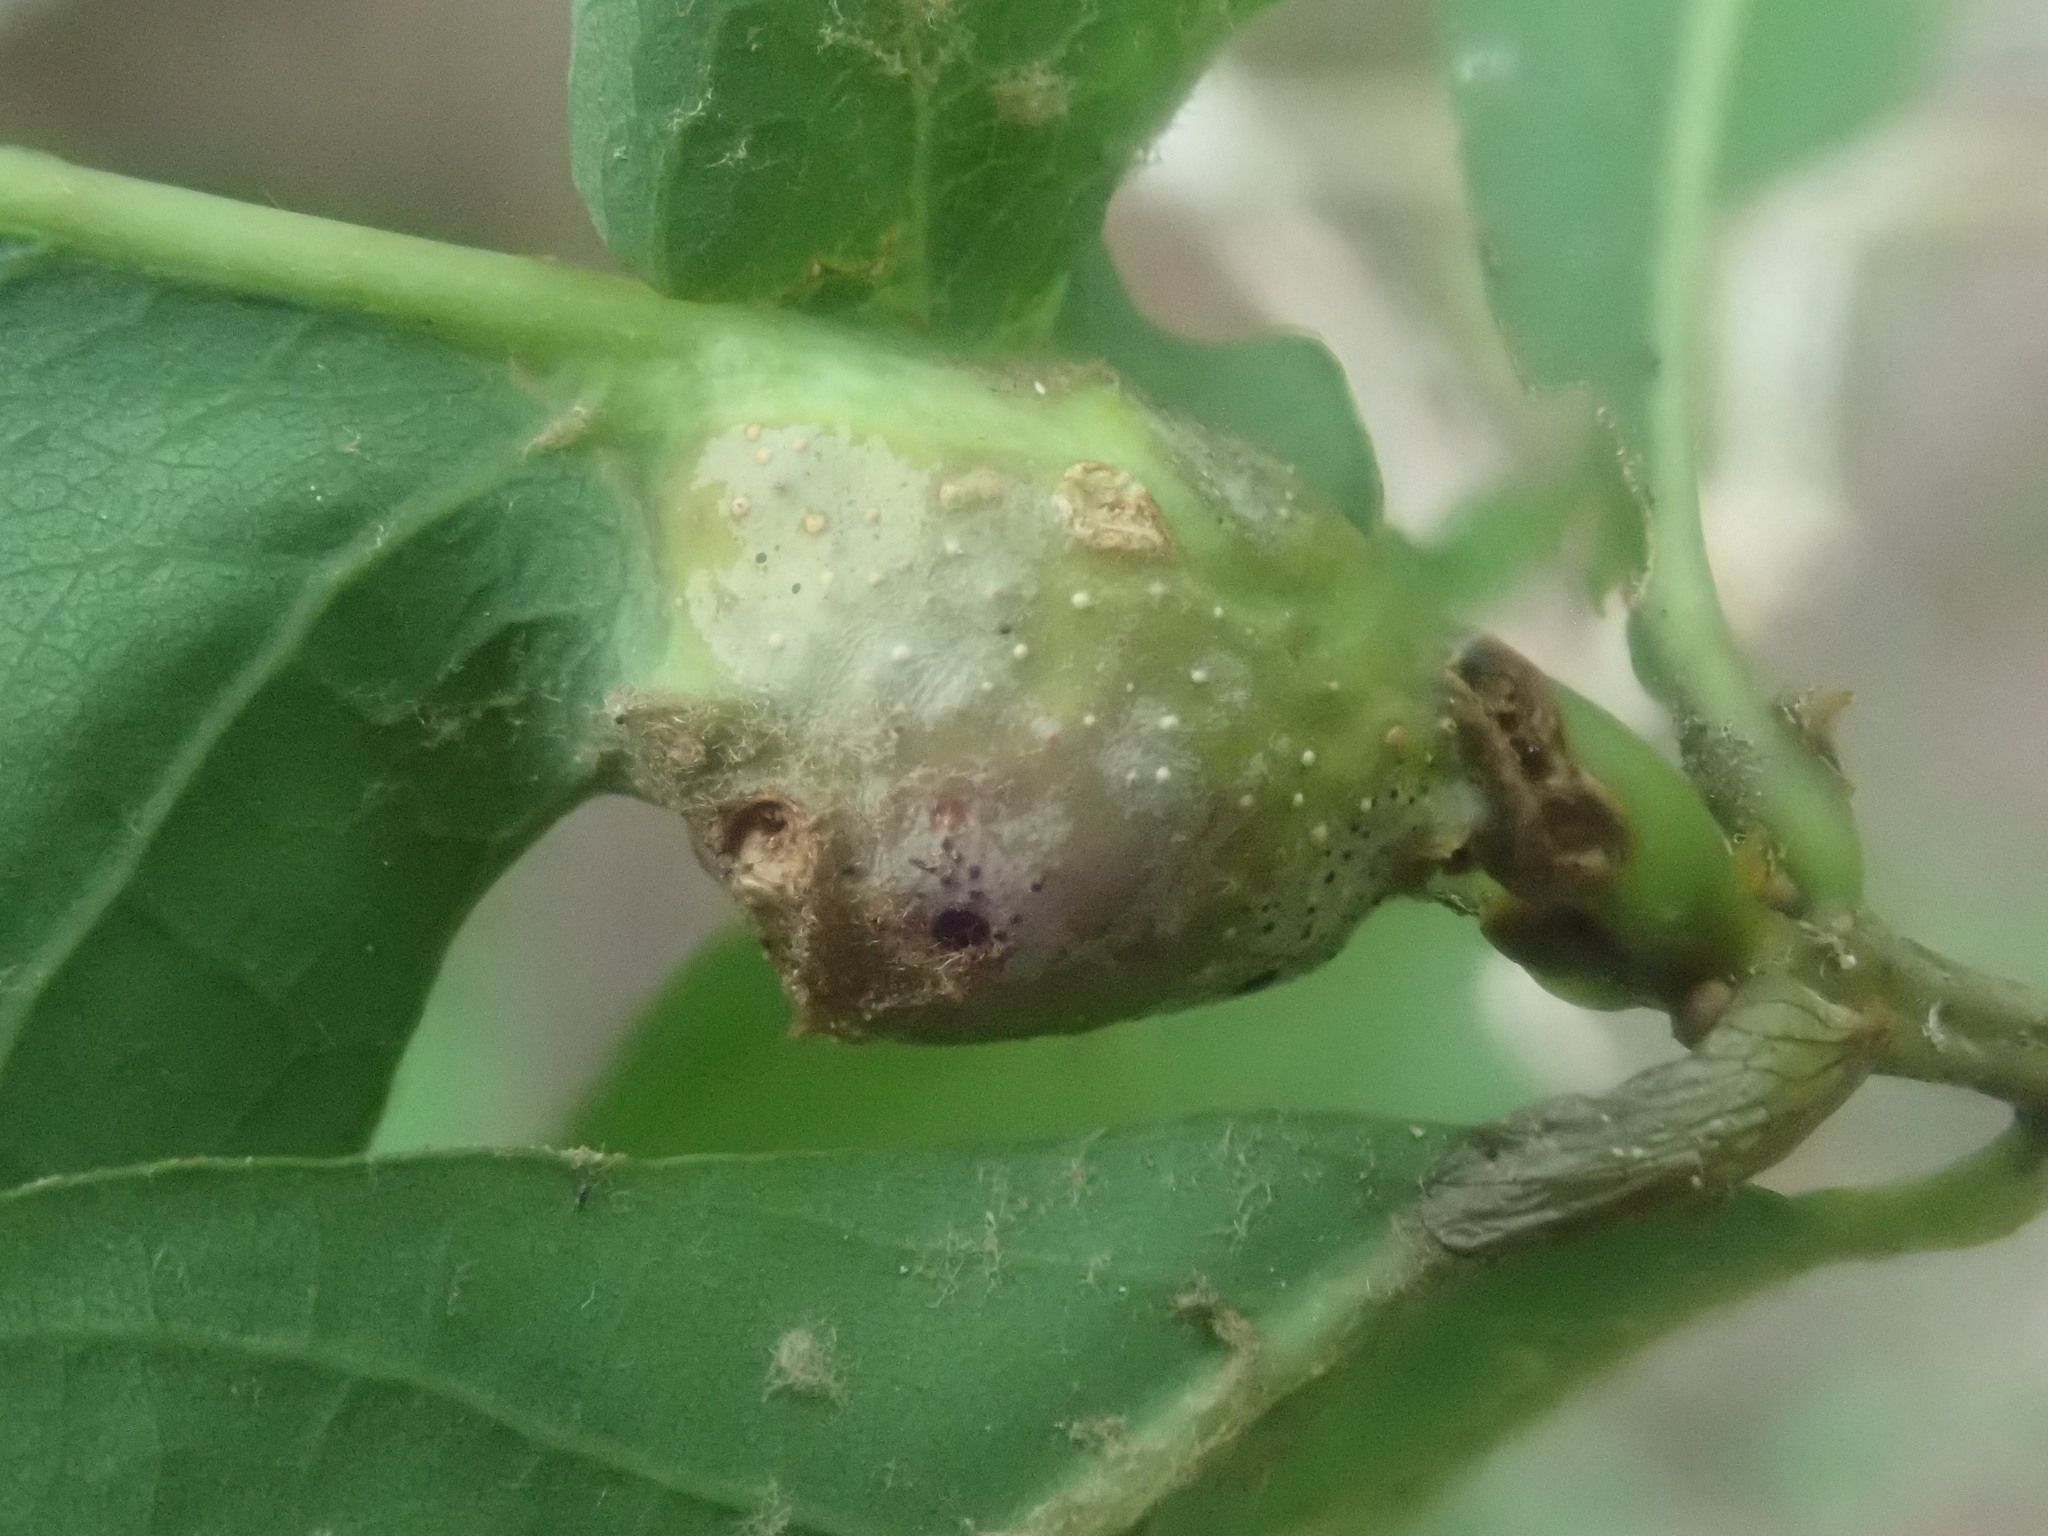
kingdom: Animalia
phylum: Arthropoda
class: Insecta
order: Hymenoptera
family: Cynipidae
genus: Andricus
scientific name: Andricus
